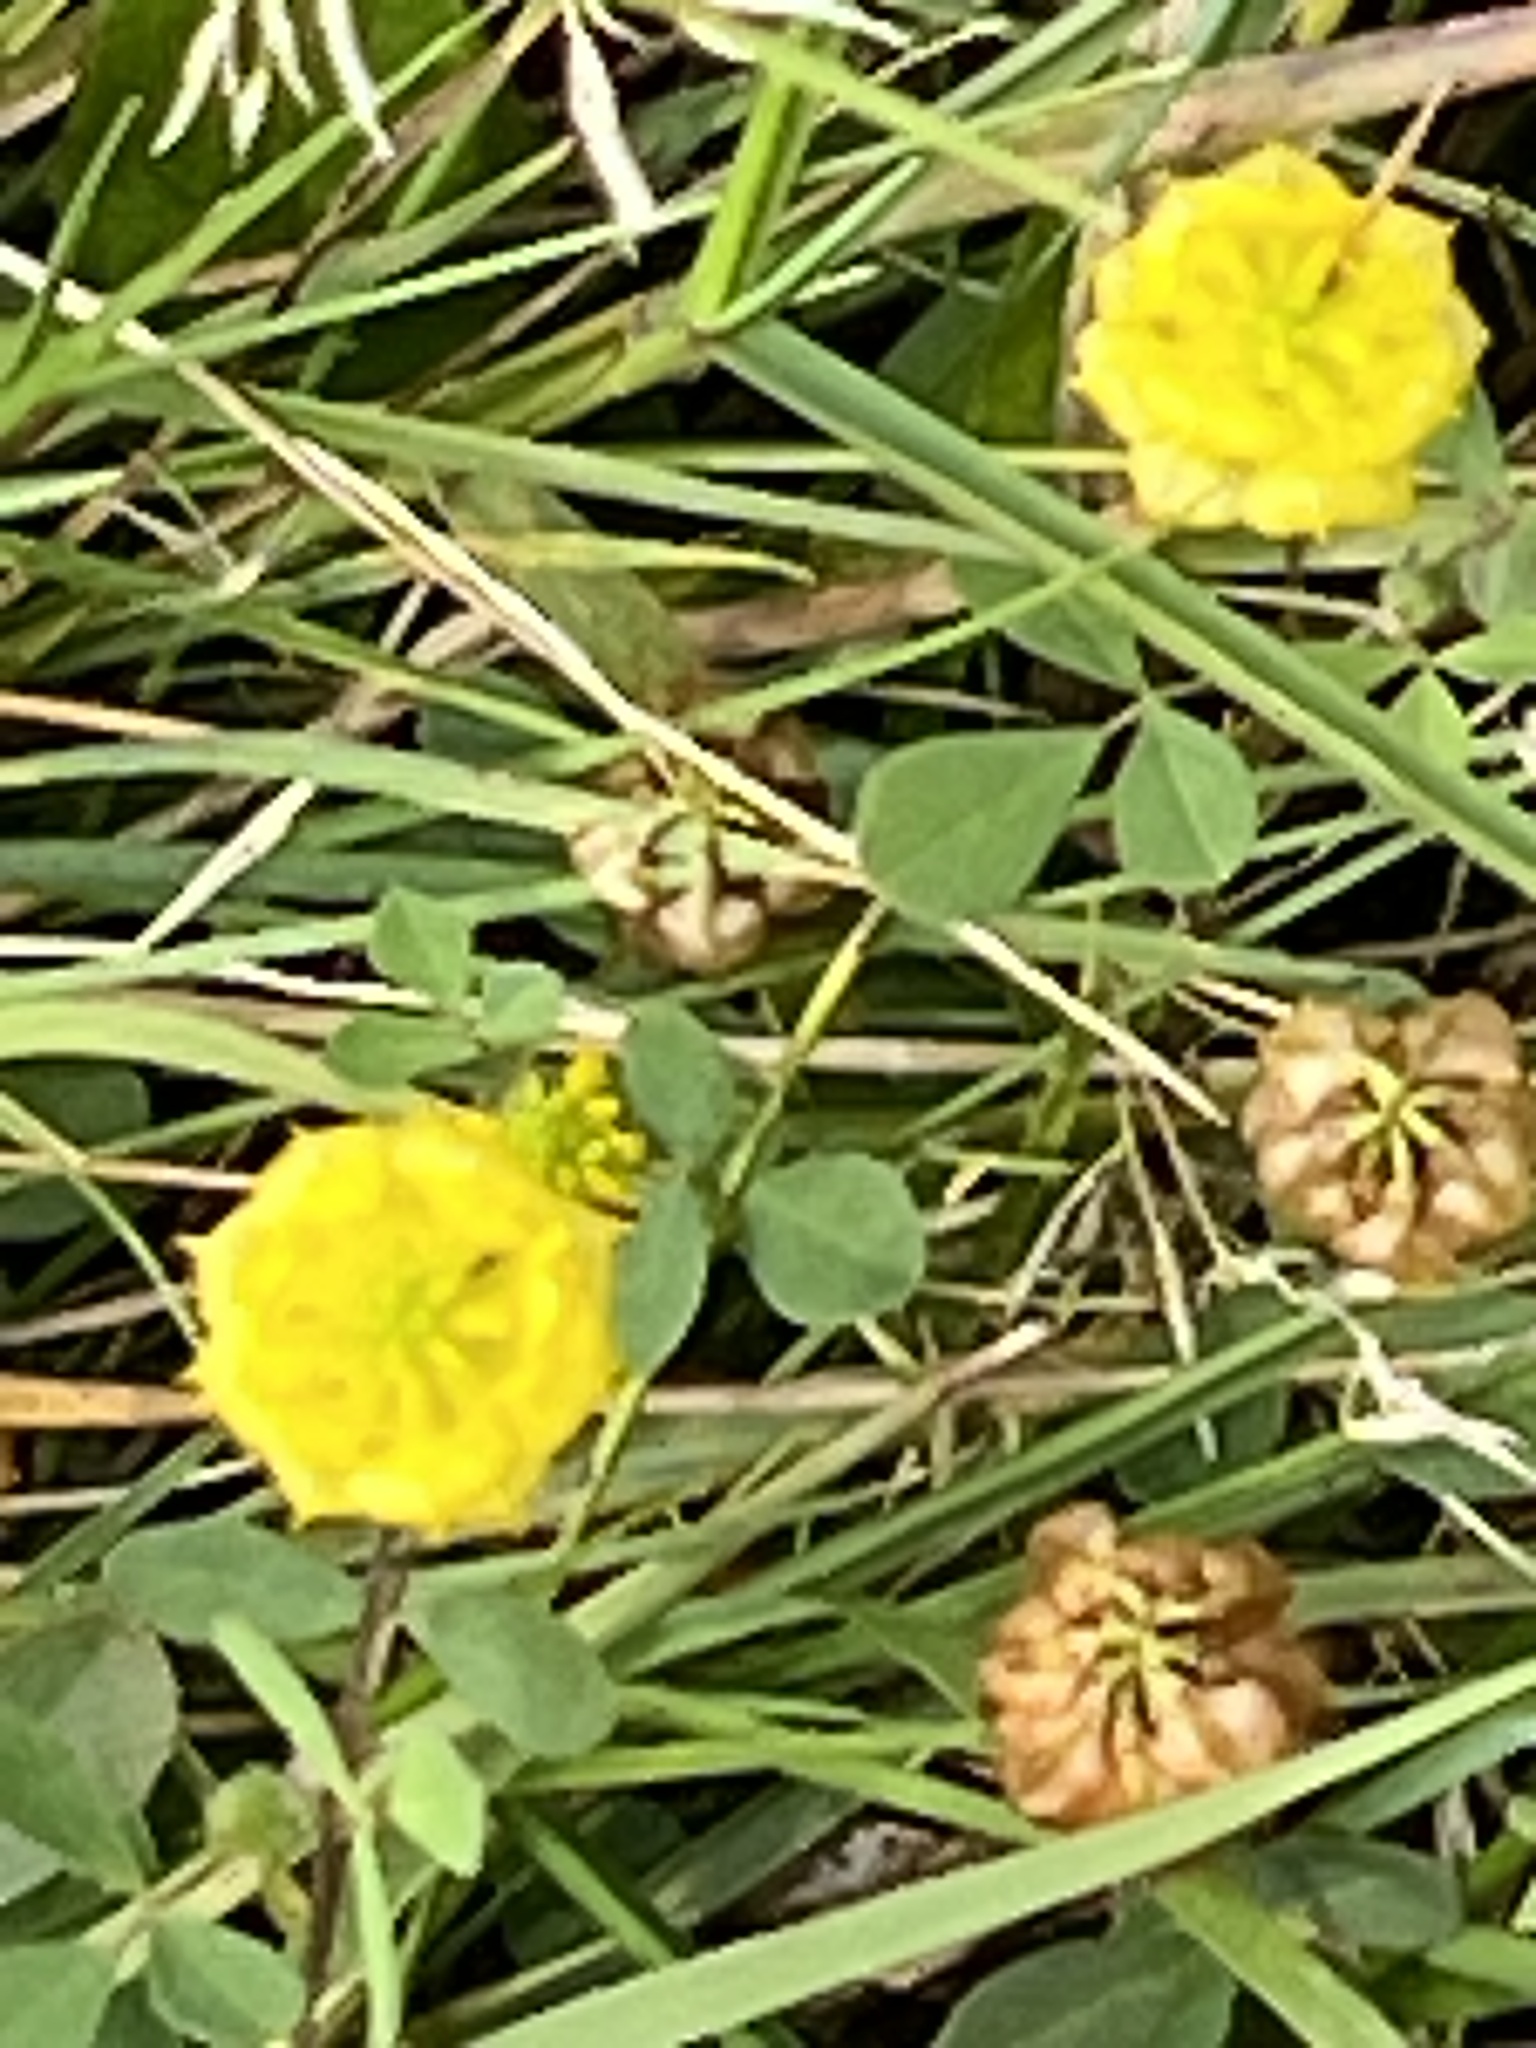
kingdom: Plantae
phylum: Tracheophyta
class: Magnoliopsida
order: Fabales
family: Fabaceae
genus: Trifolium
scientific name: Trifolium campestre
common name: Field clover
